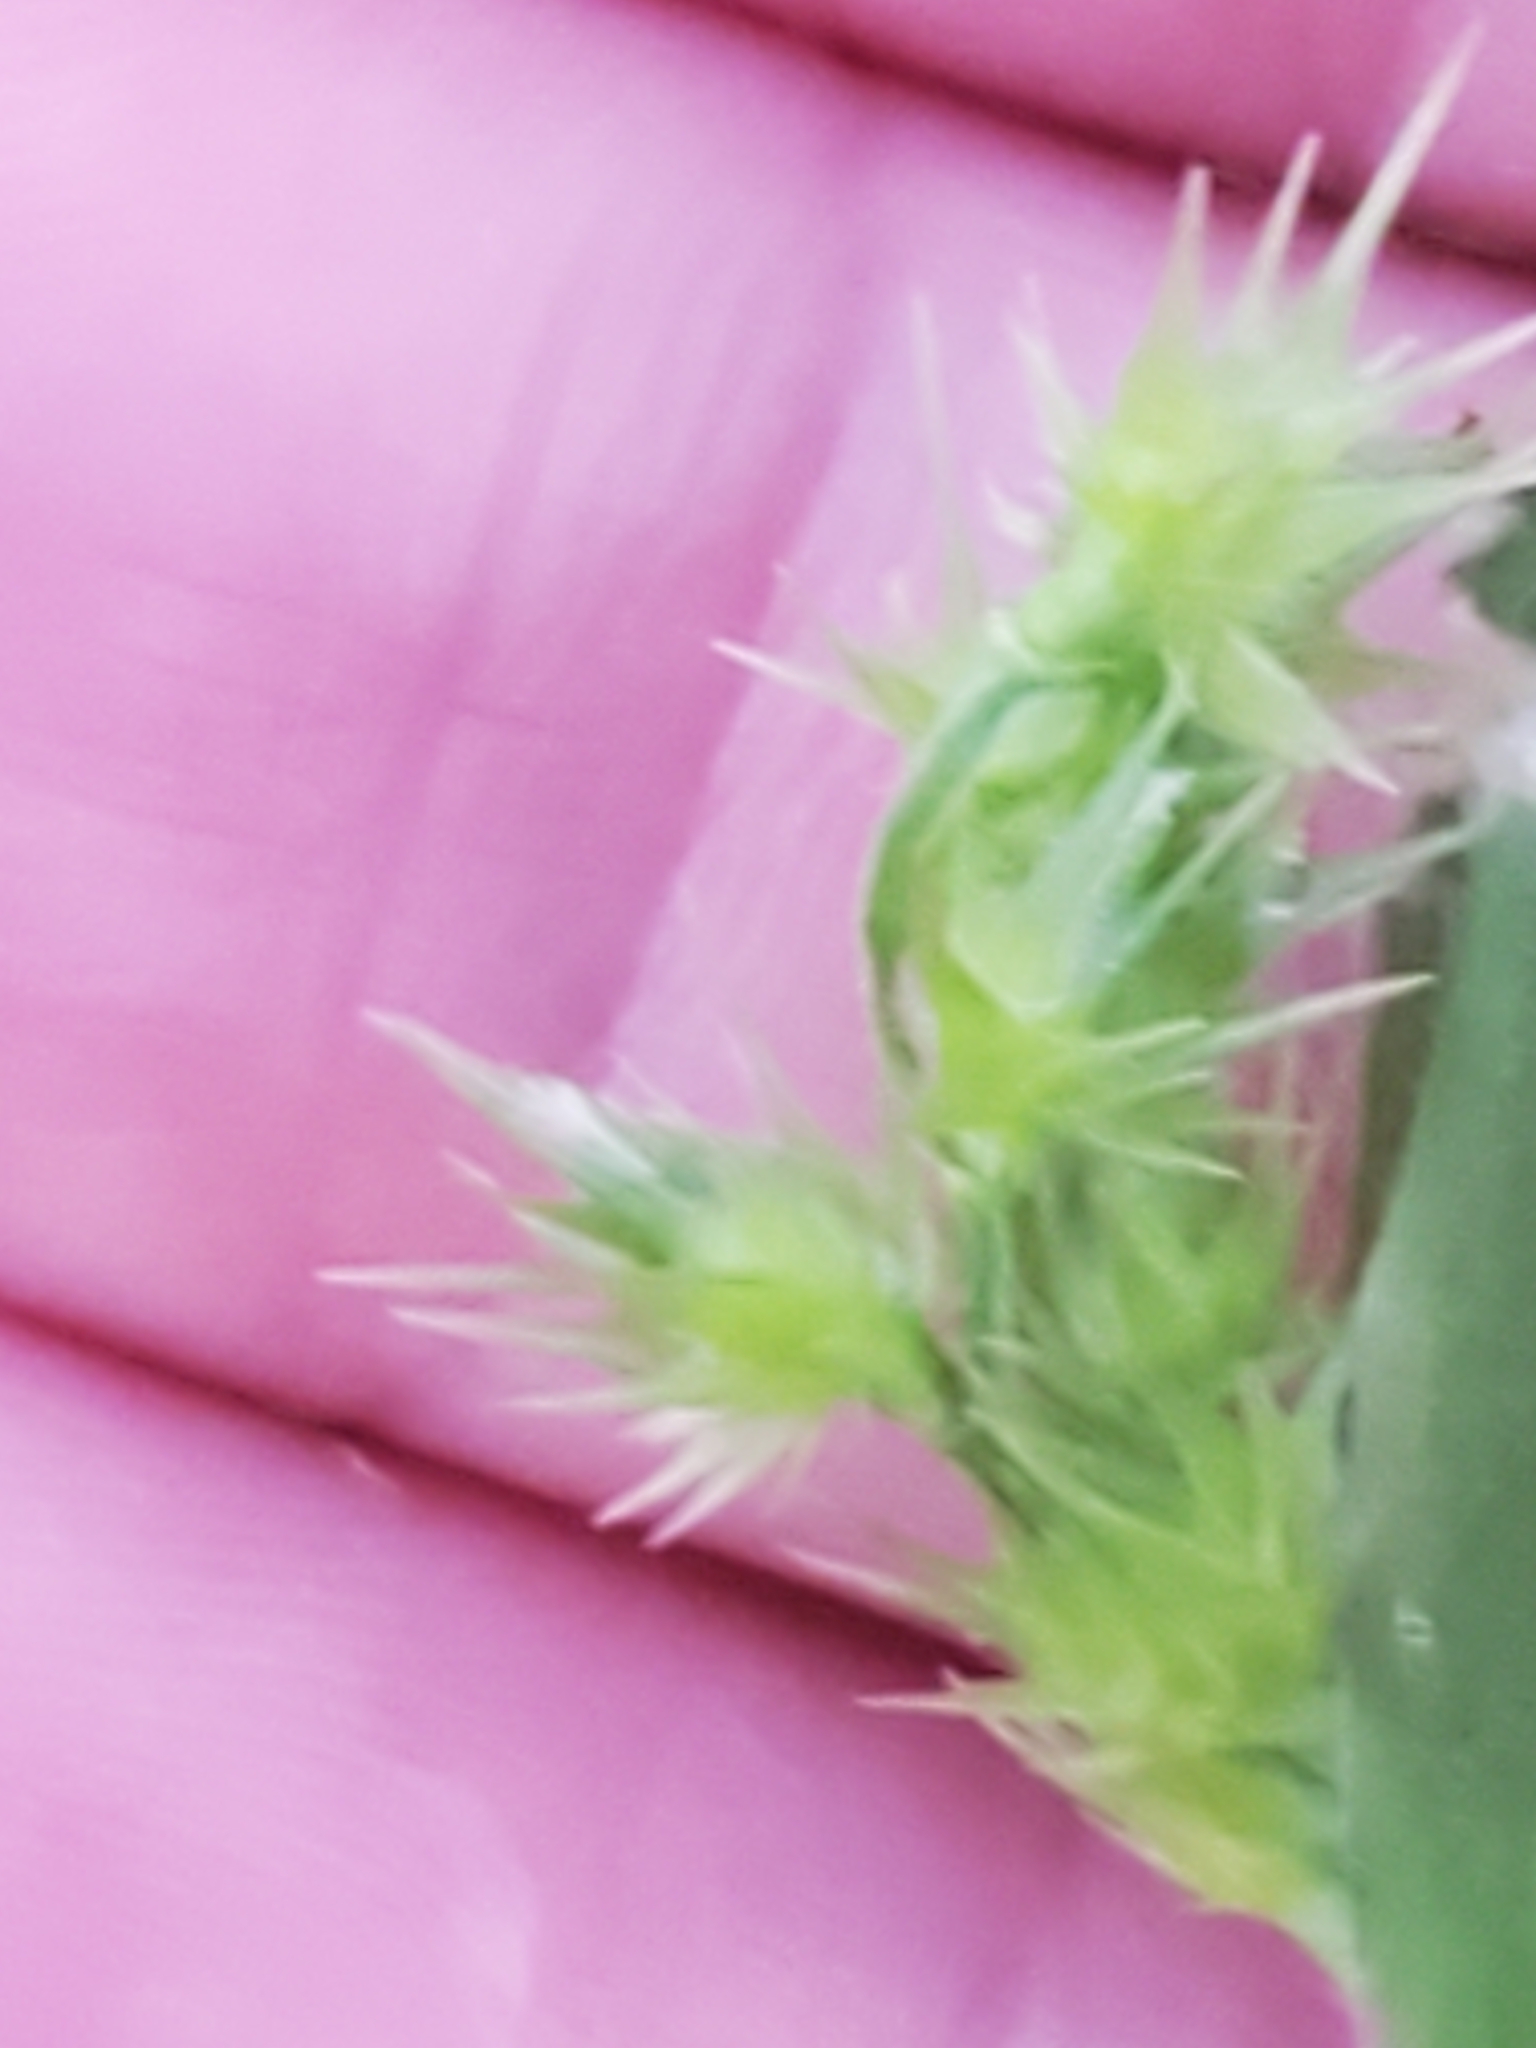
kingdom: Plantae
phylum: Tracheophyta
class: Liliopsida
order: Poales
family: Poaceae
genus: Cenchrus
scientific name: Cenchrus spinifex
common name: Coast sandbur
